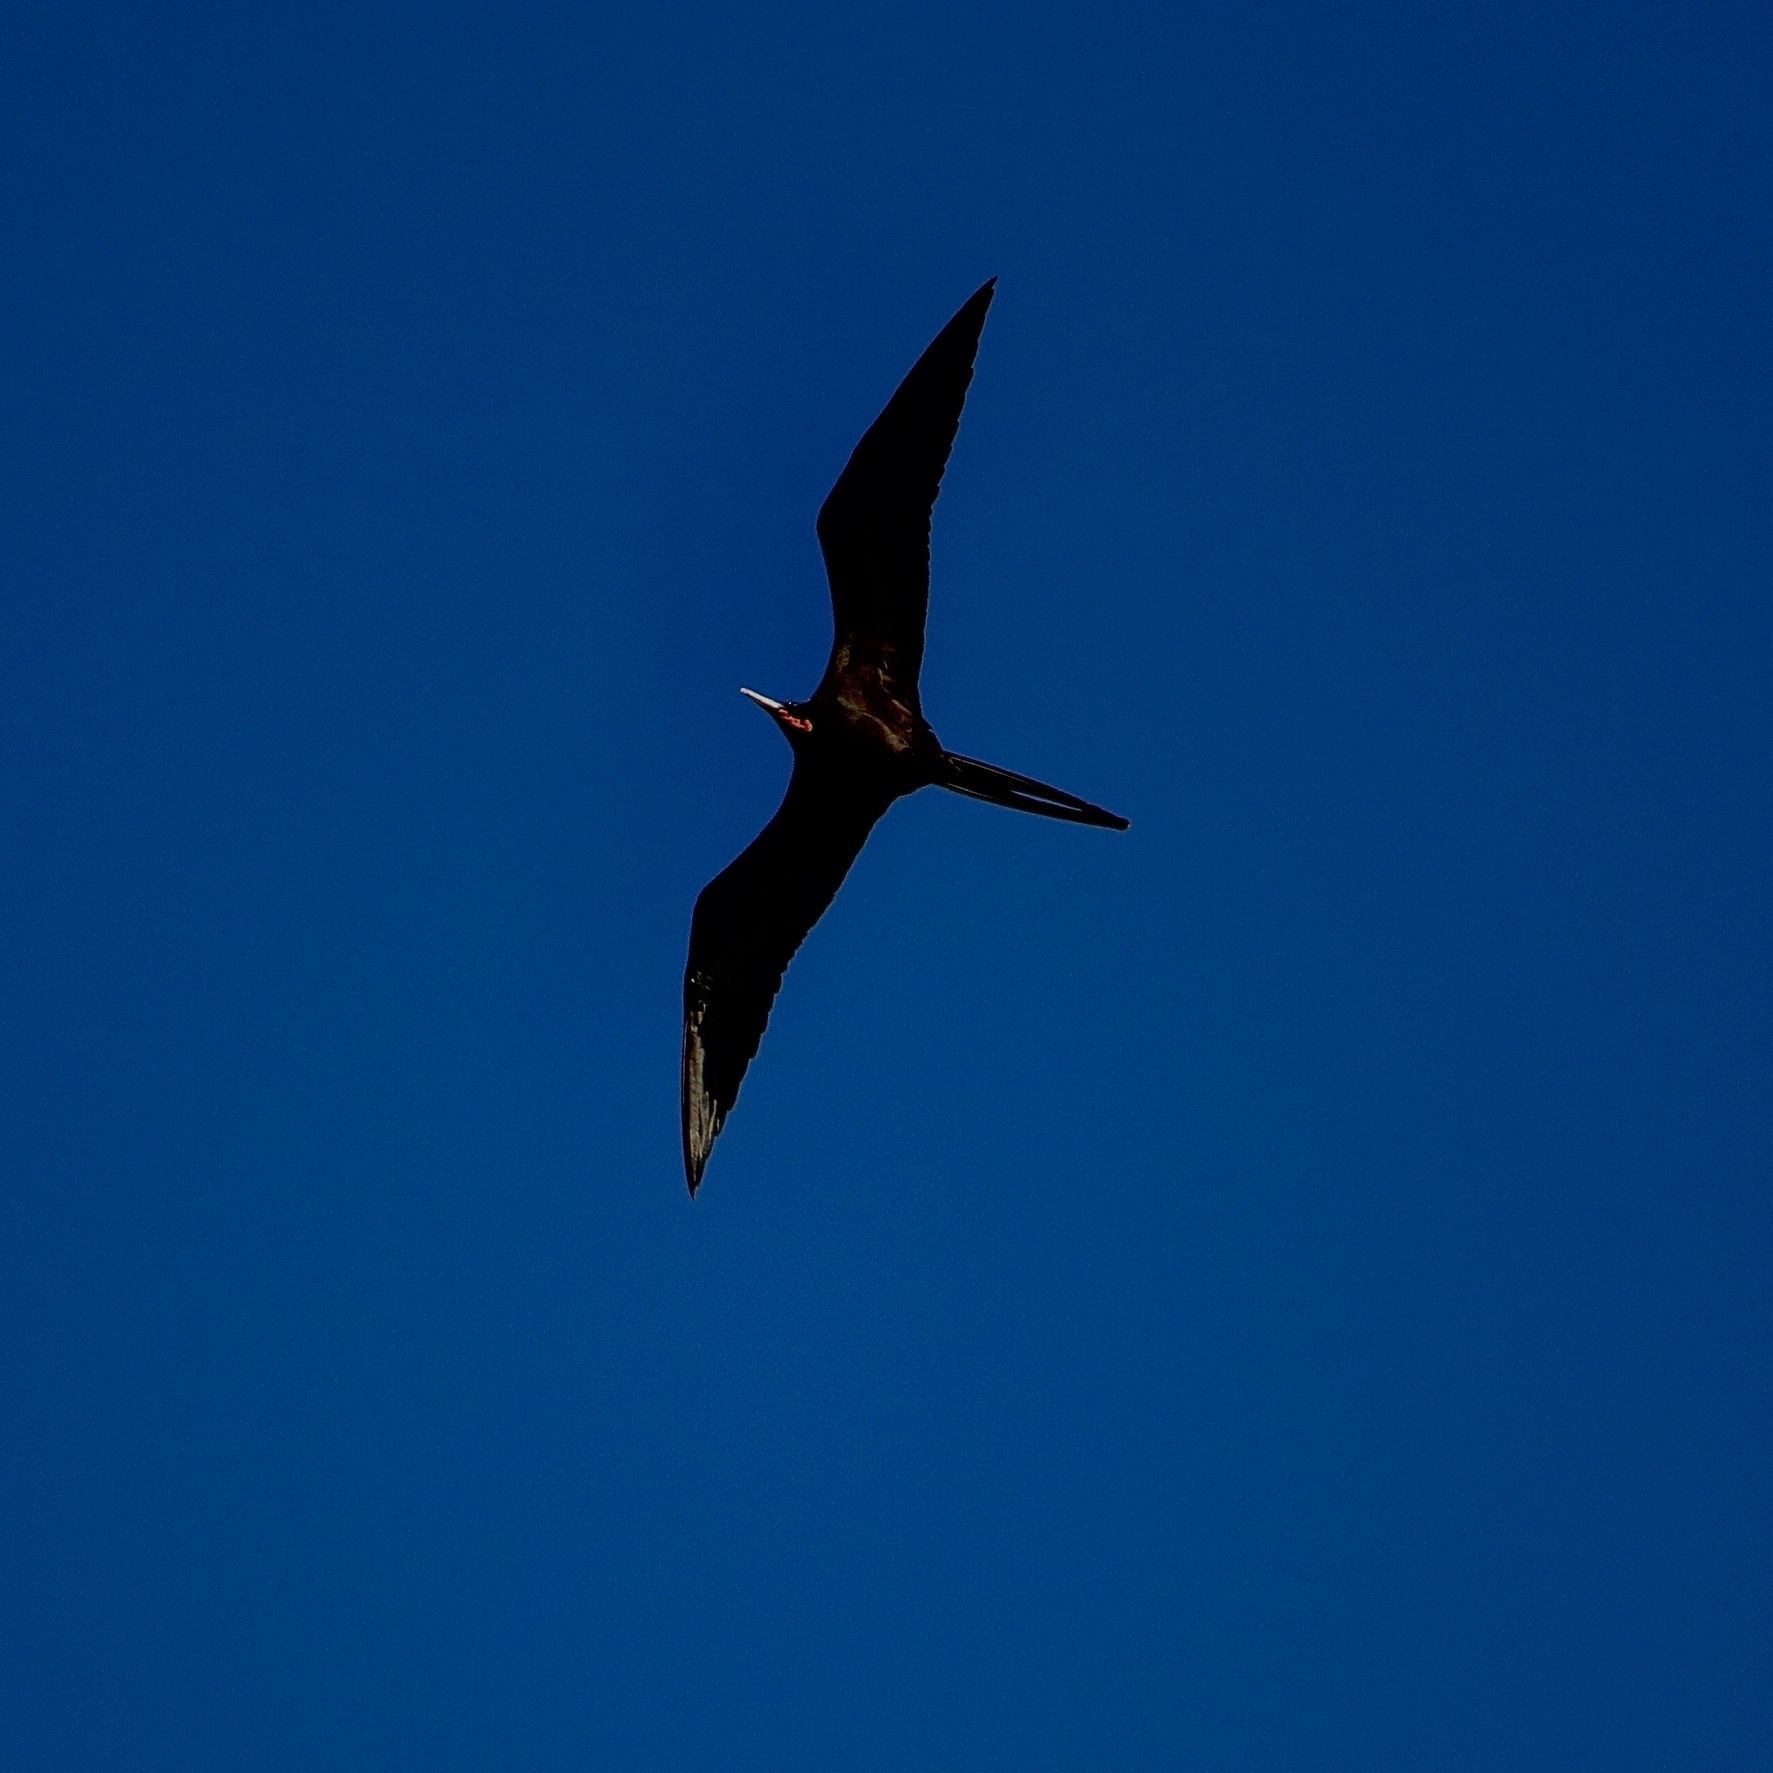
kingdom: Animalia
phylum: Chordata
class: Aves
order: Suliformes
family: Fregatidae
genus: Fregata
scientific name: Fregata magnificens
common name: Magnificent frigatebird
